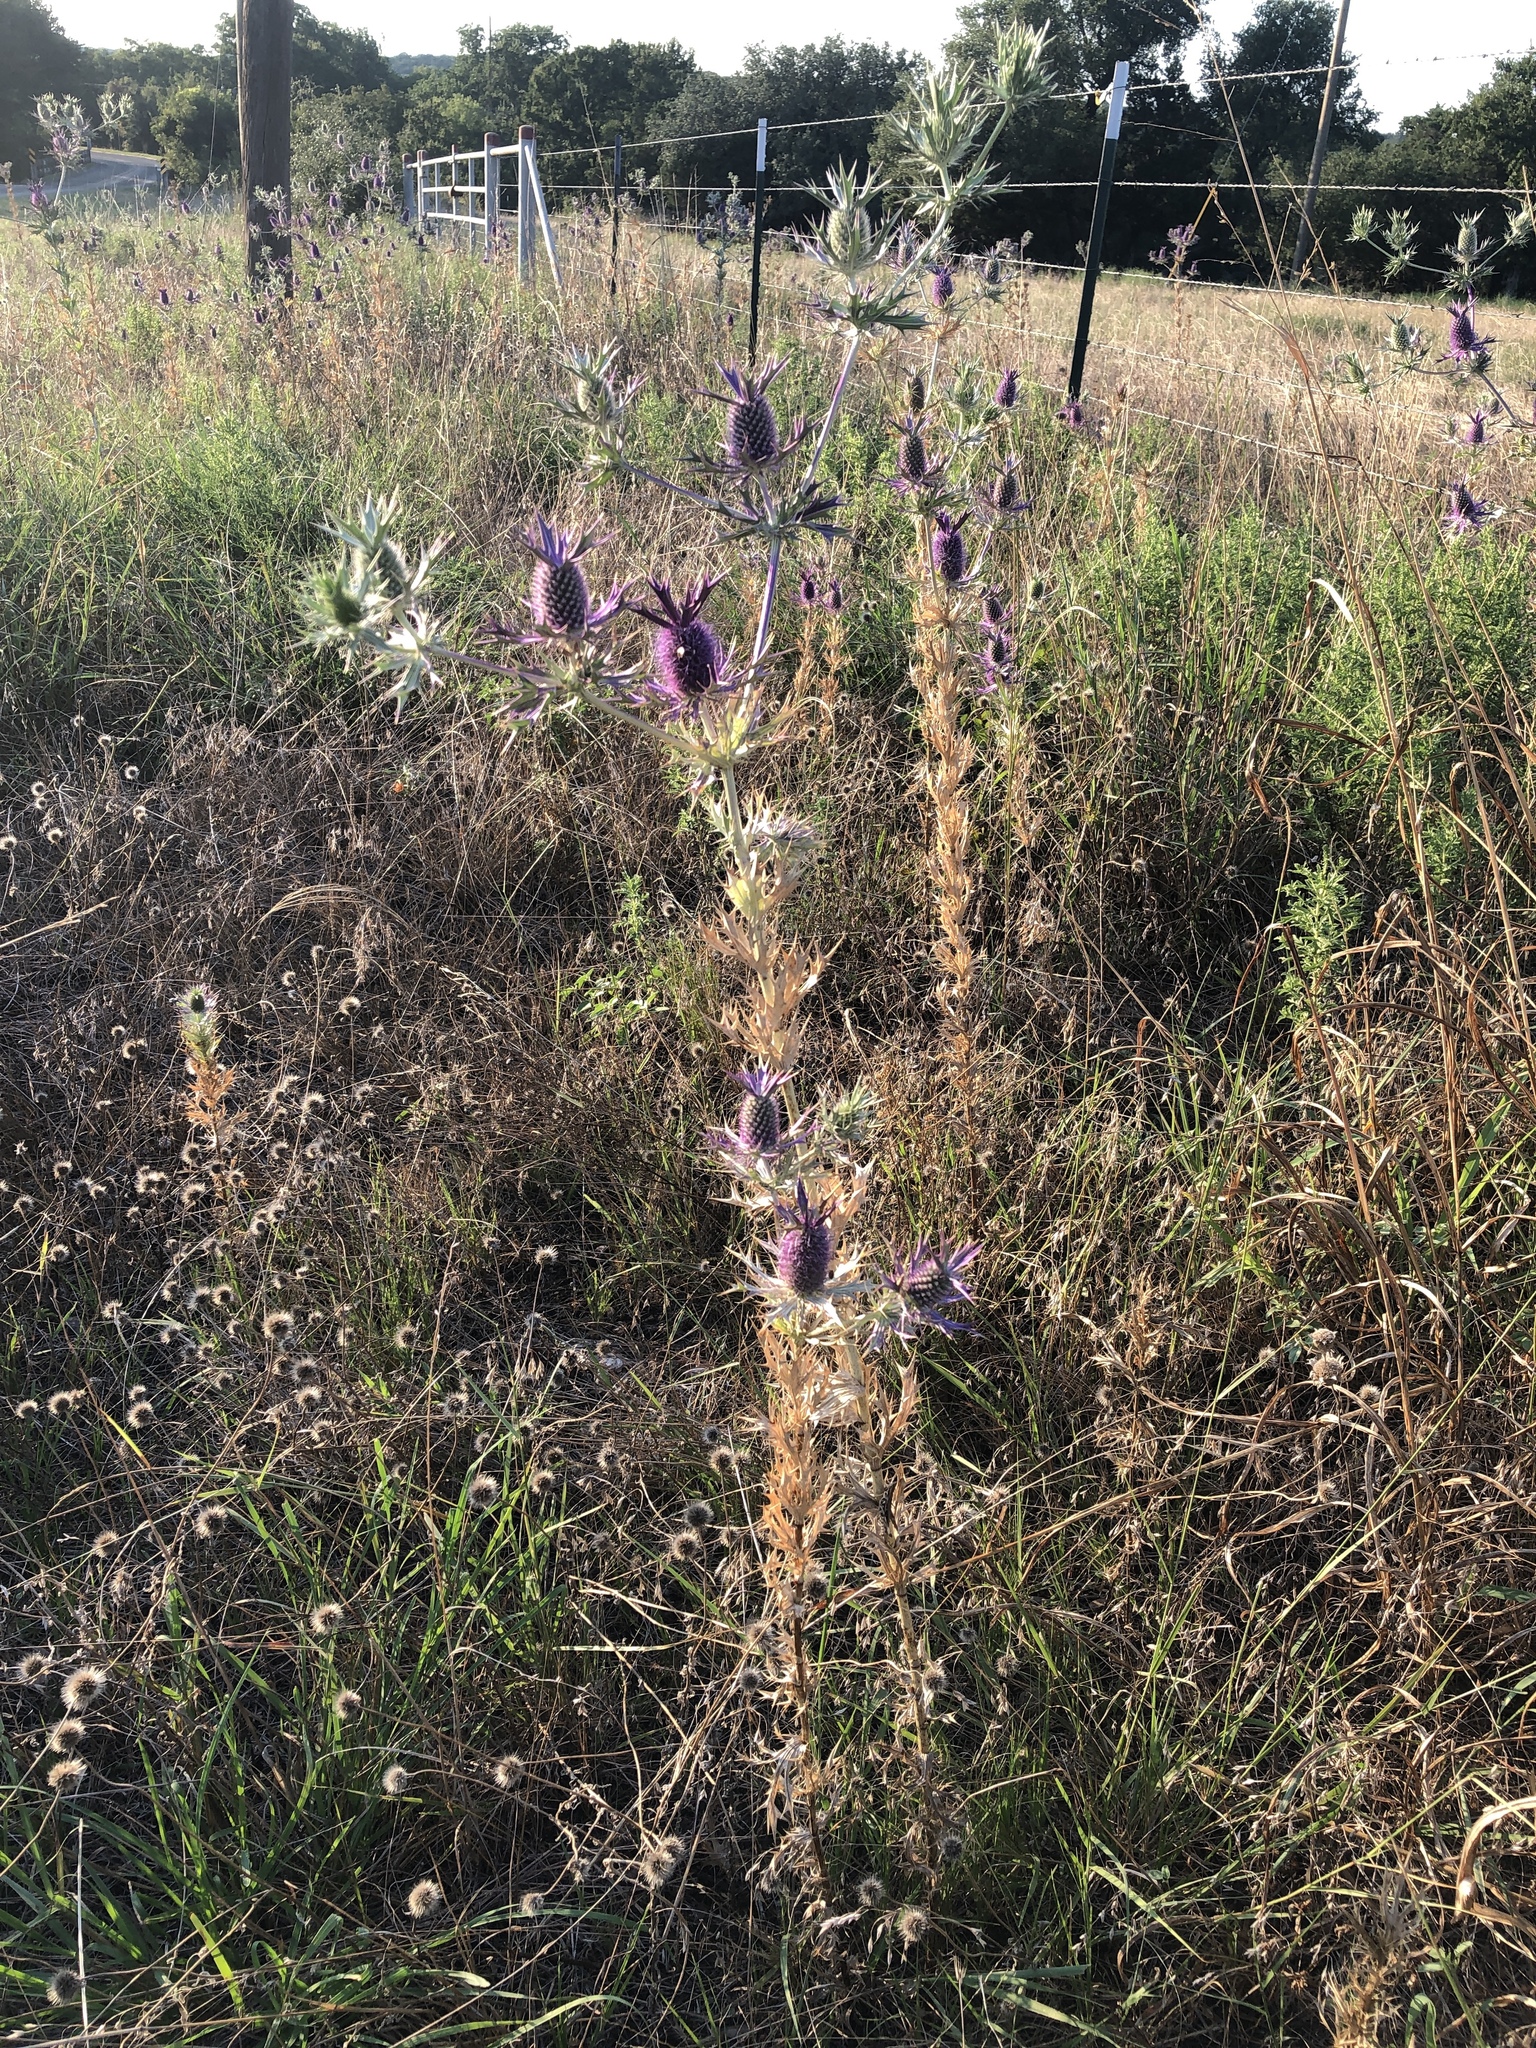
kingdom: Plantae
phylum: Tracheophyta
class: Magnoliopsida
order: Apiales
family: Apiaceae
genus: Eryngium
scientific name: Eryngium leavenworthii
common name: Leavenworth's eryngo
